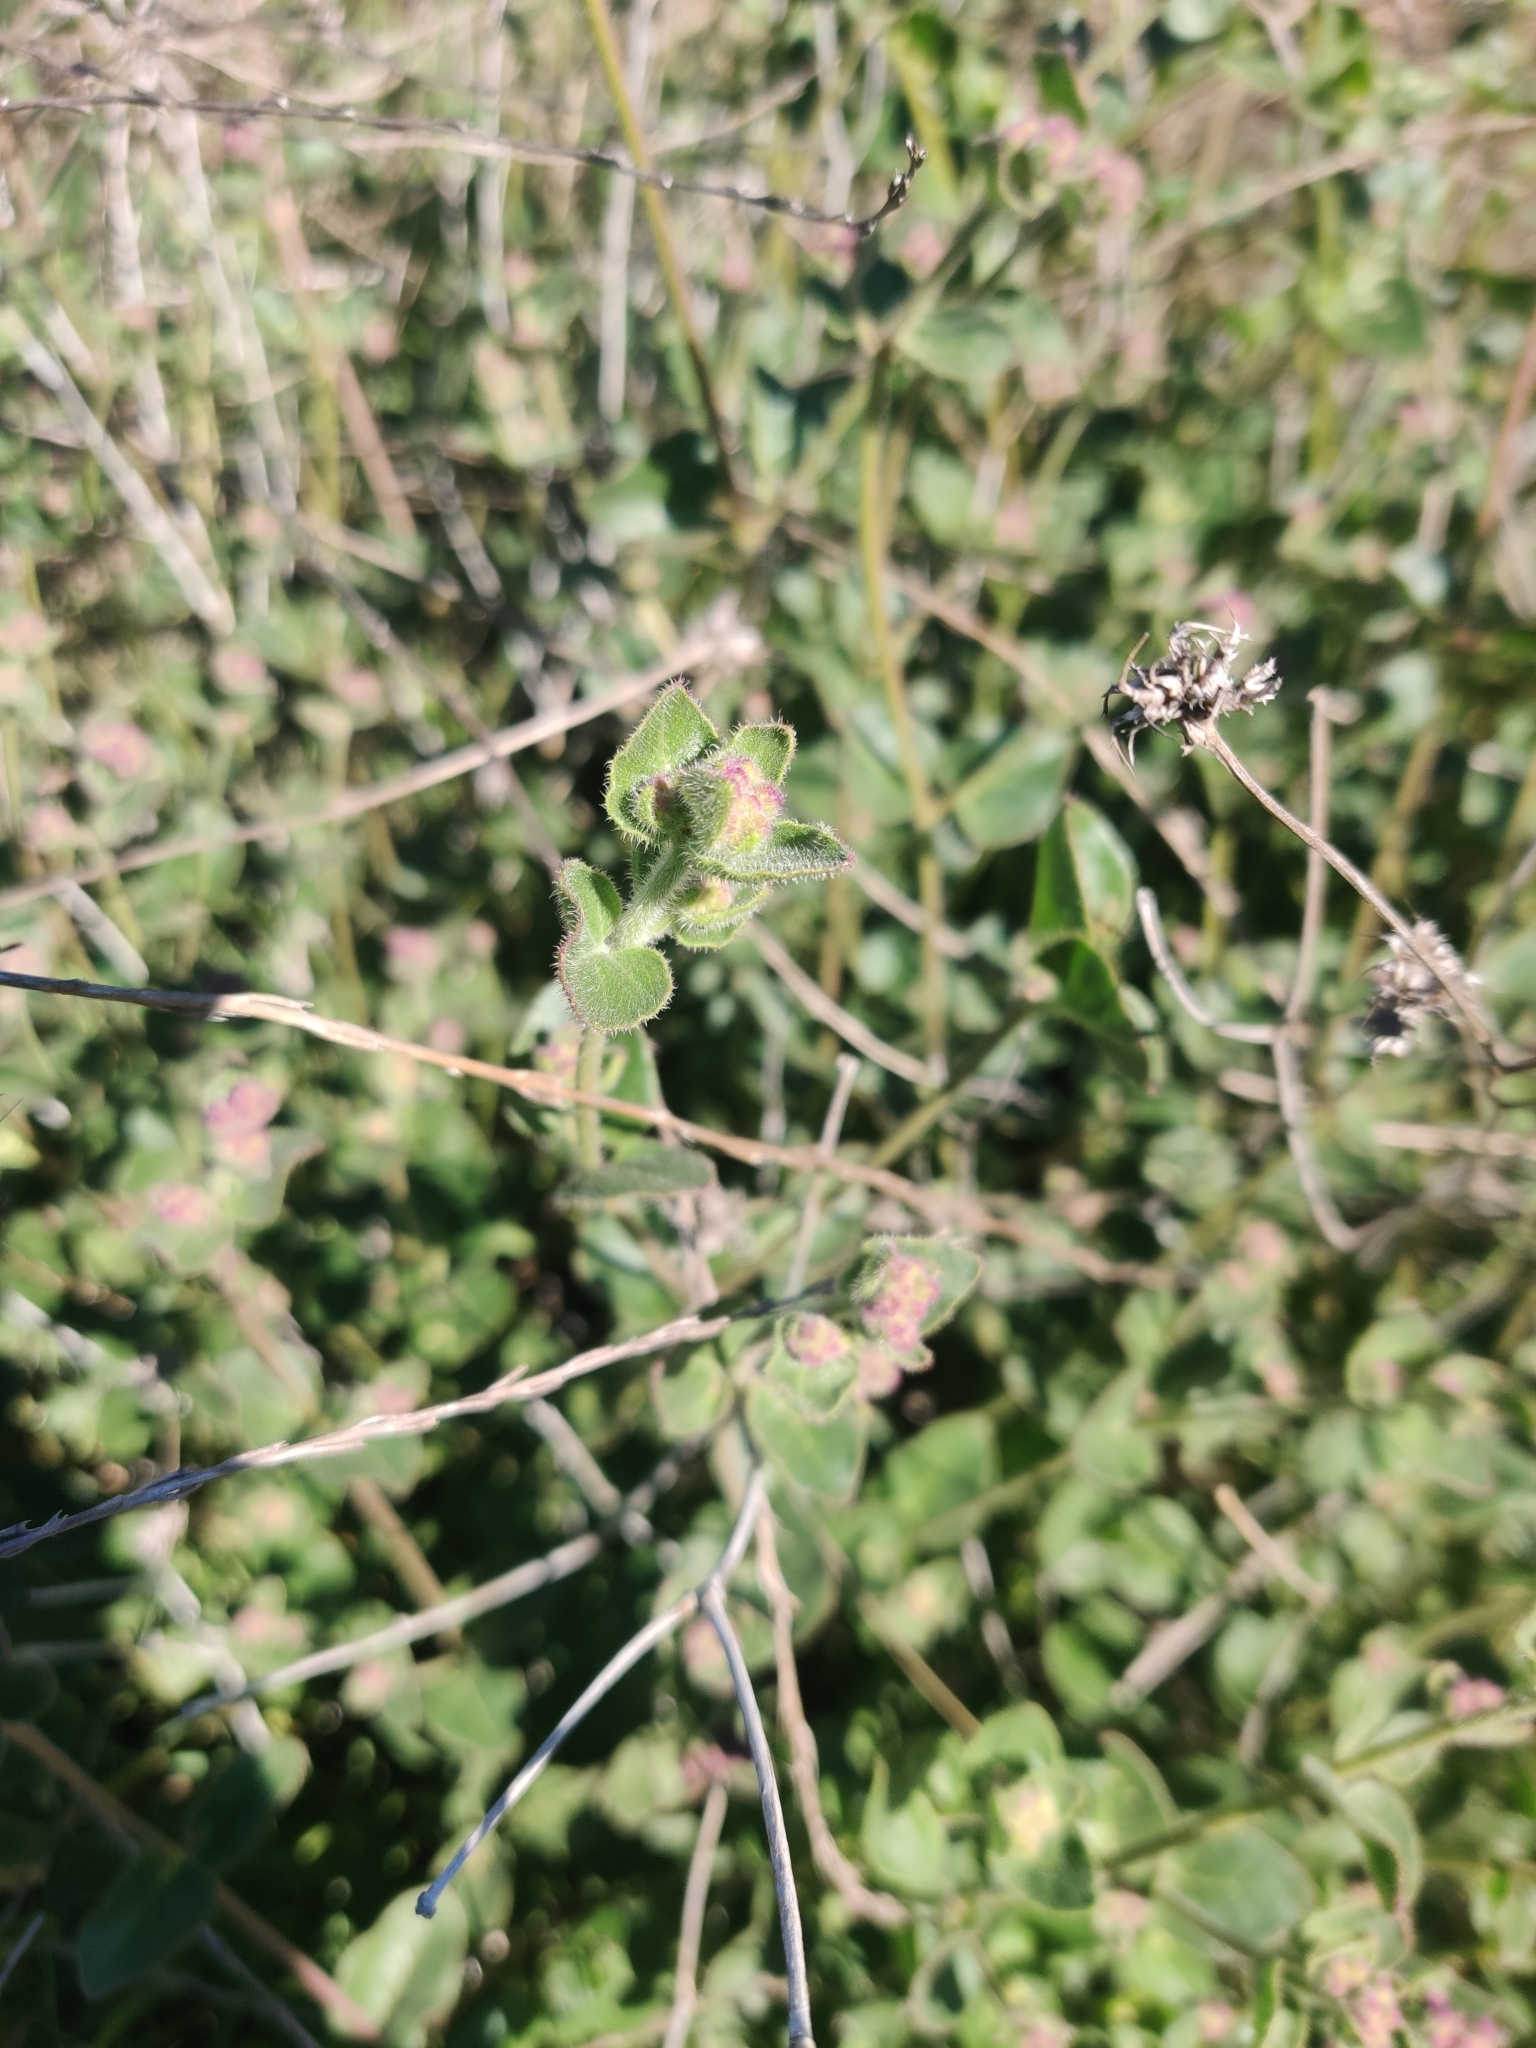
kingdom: Plantae
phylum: Tracheophyta
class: Magnoliopsida
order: Caryophyllales
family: Nyctaginaceae
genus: Mirabilis
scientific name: Mirabilis laevis
